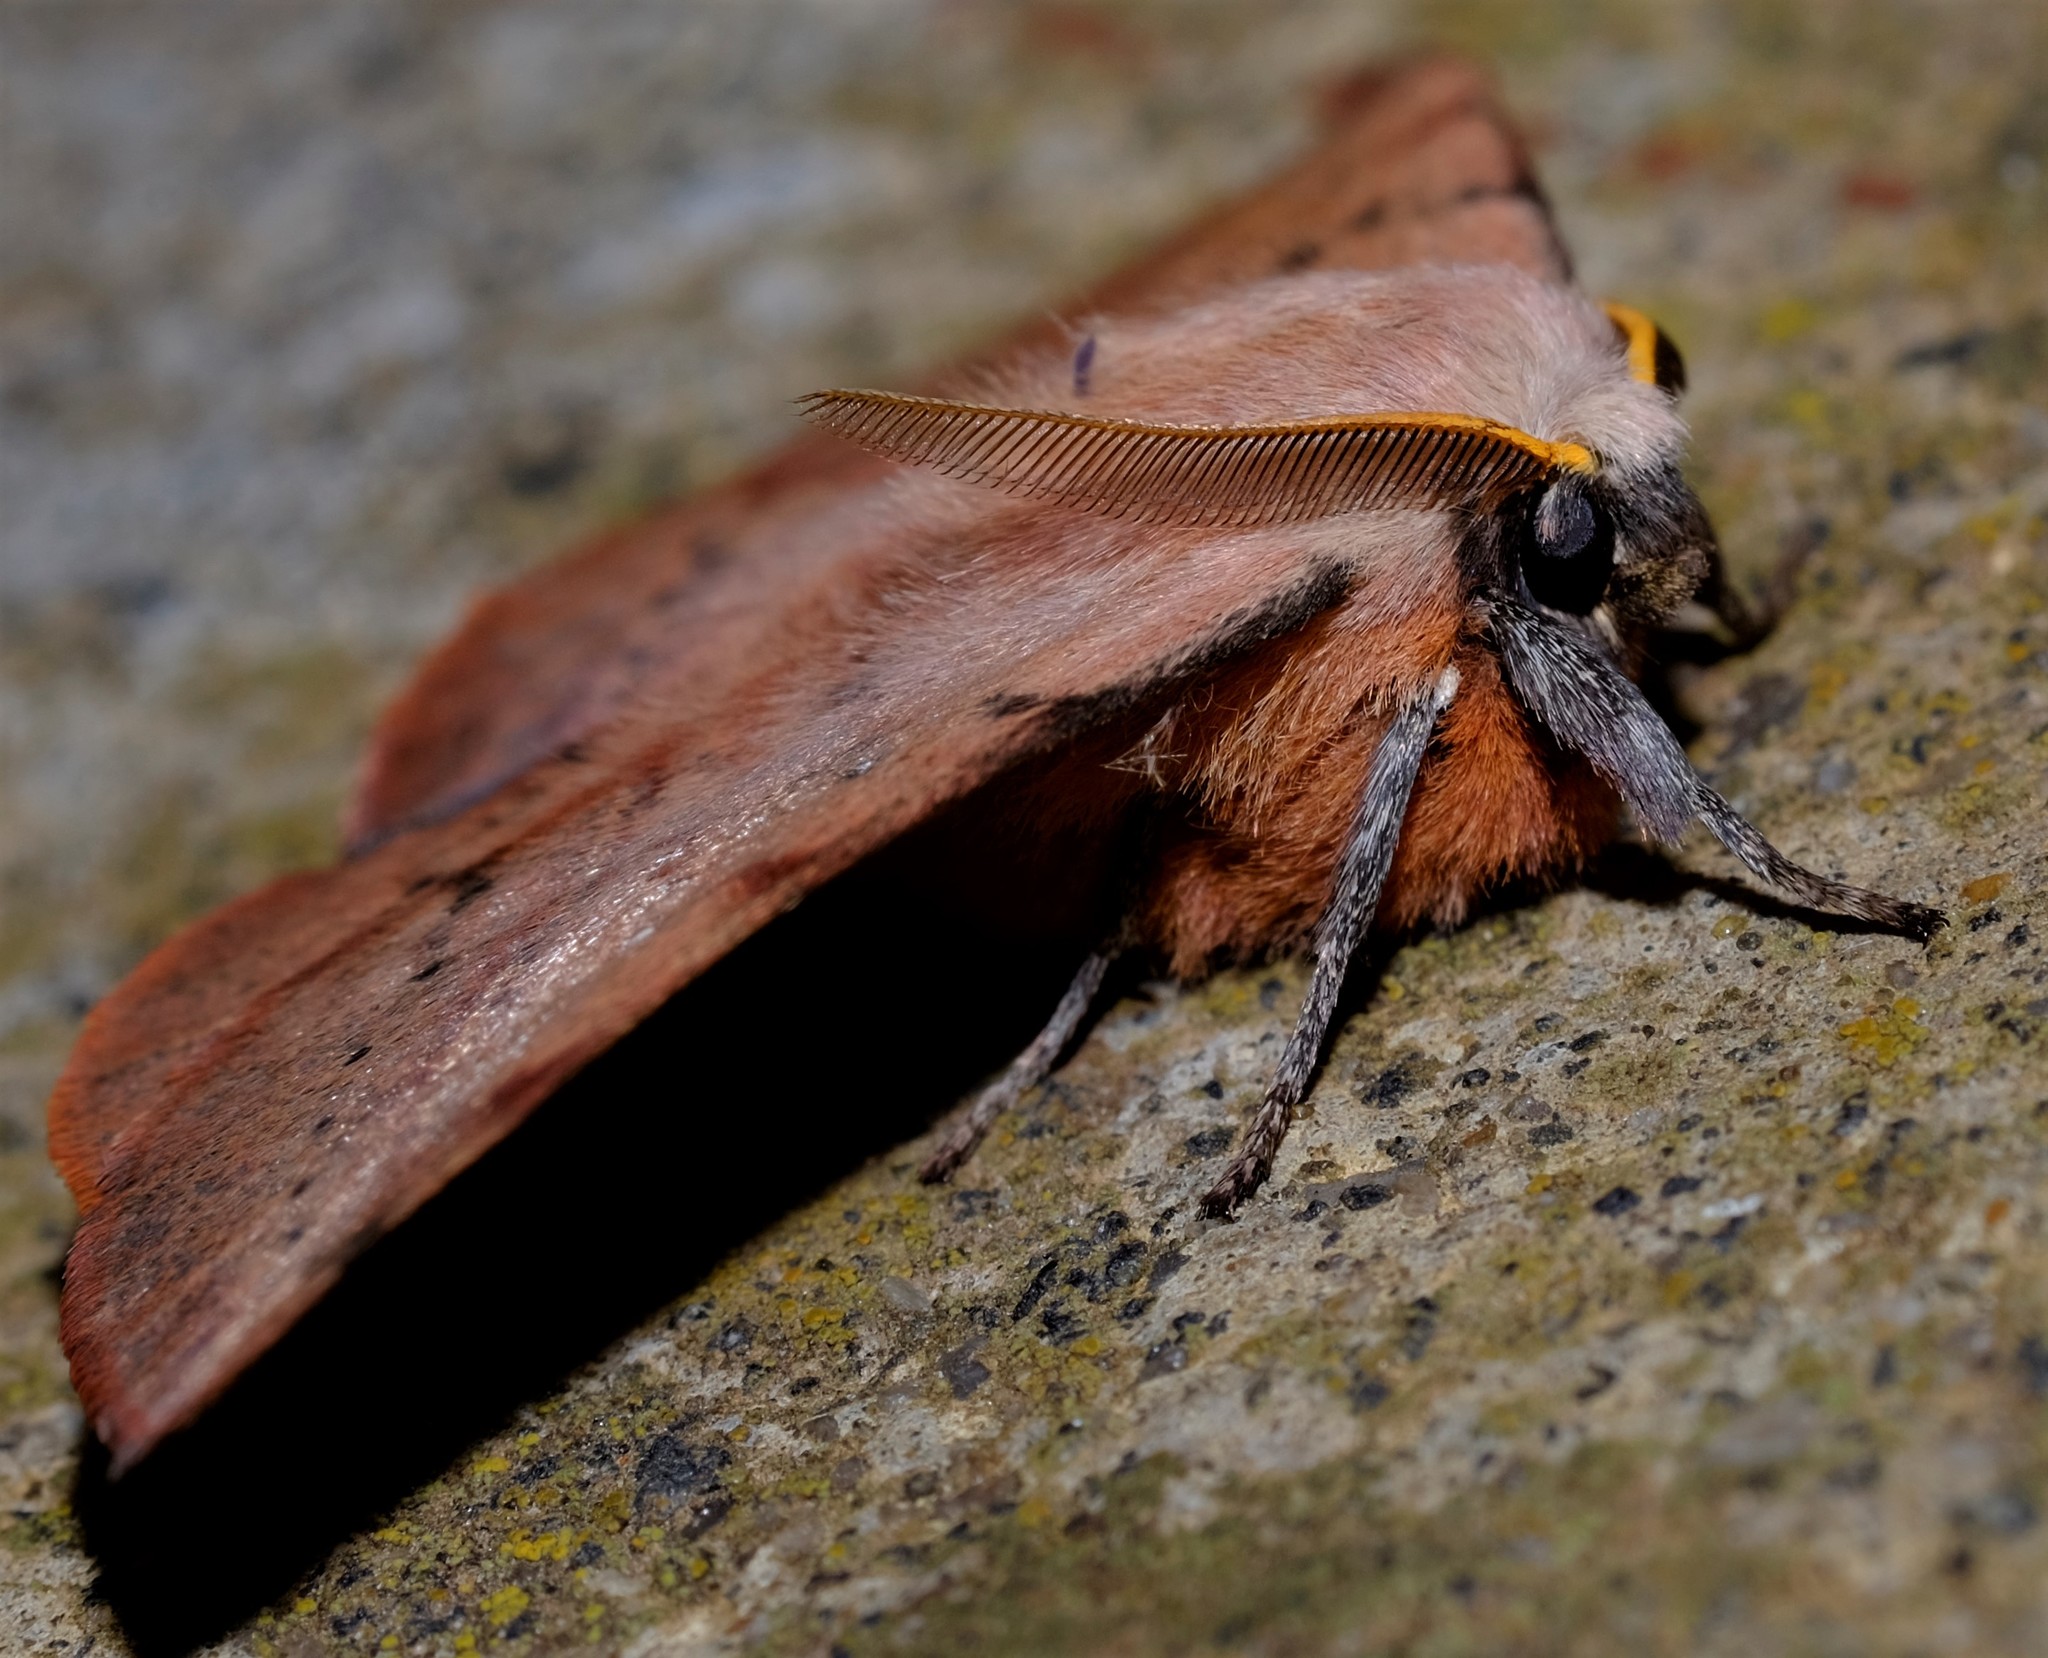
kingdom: Animalia
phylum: Arthropoda
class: Insecta
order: Lepidoptera
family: Anthelidae
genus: Anthela
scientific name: Anthela acuta
